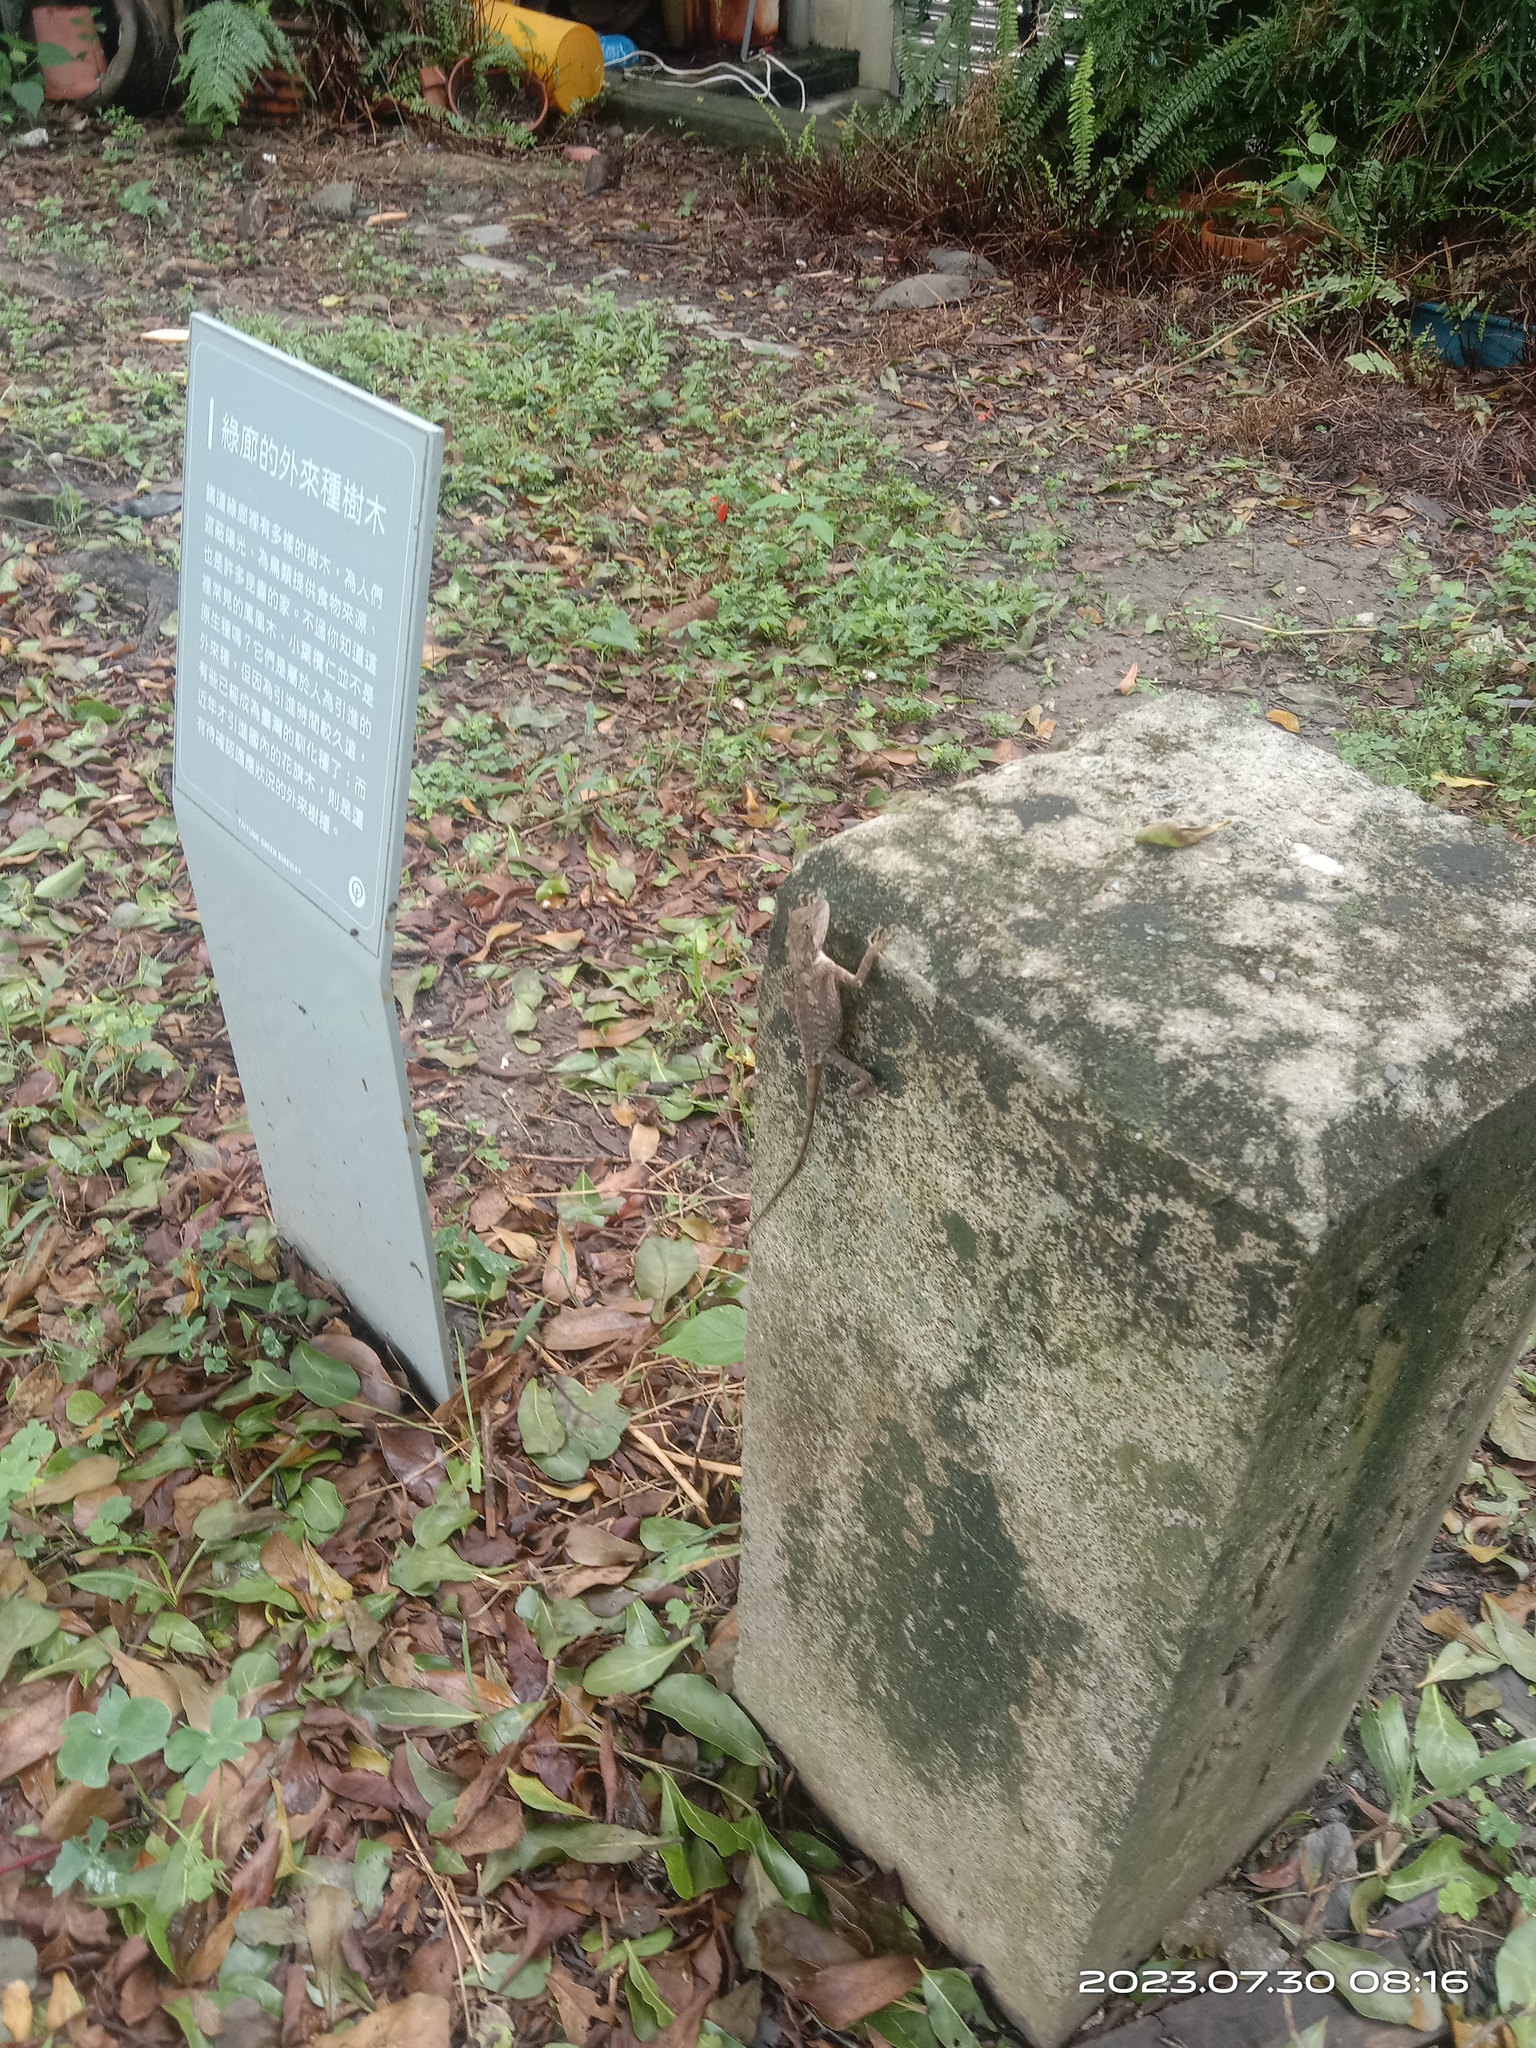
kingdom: Animalia
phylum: Chordata
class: Squamata
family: Agamidae
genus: Diploderma
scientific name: Diploderma swinhonis
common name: Taiwan japalure
